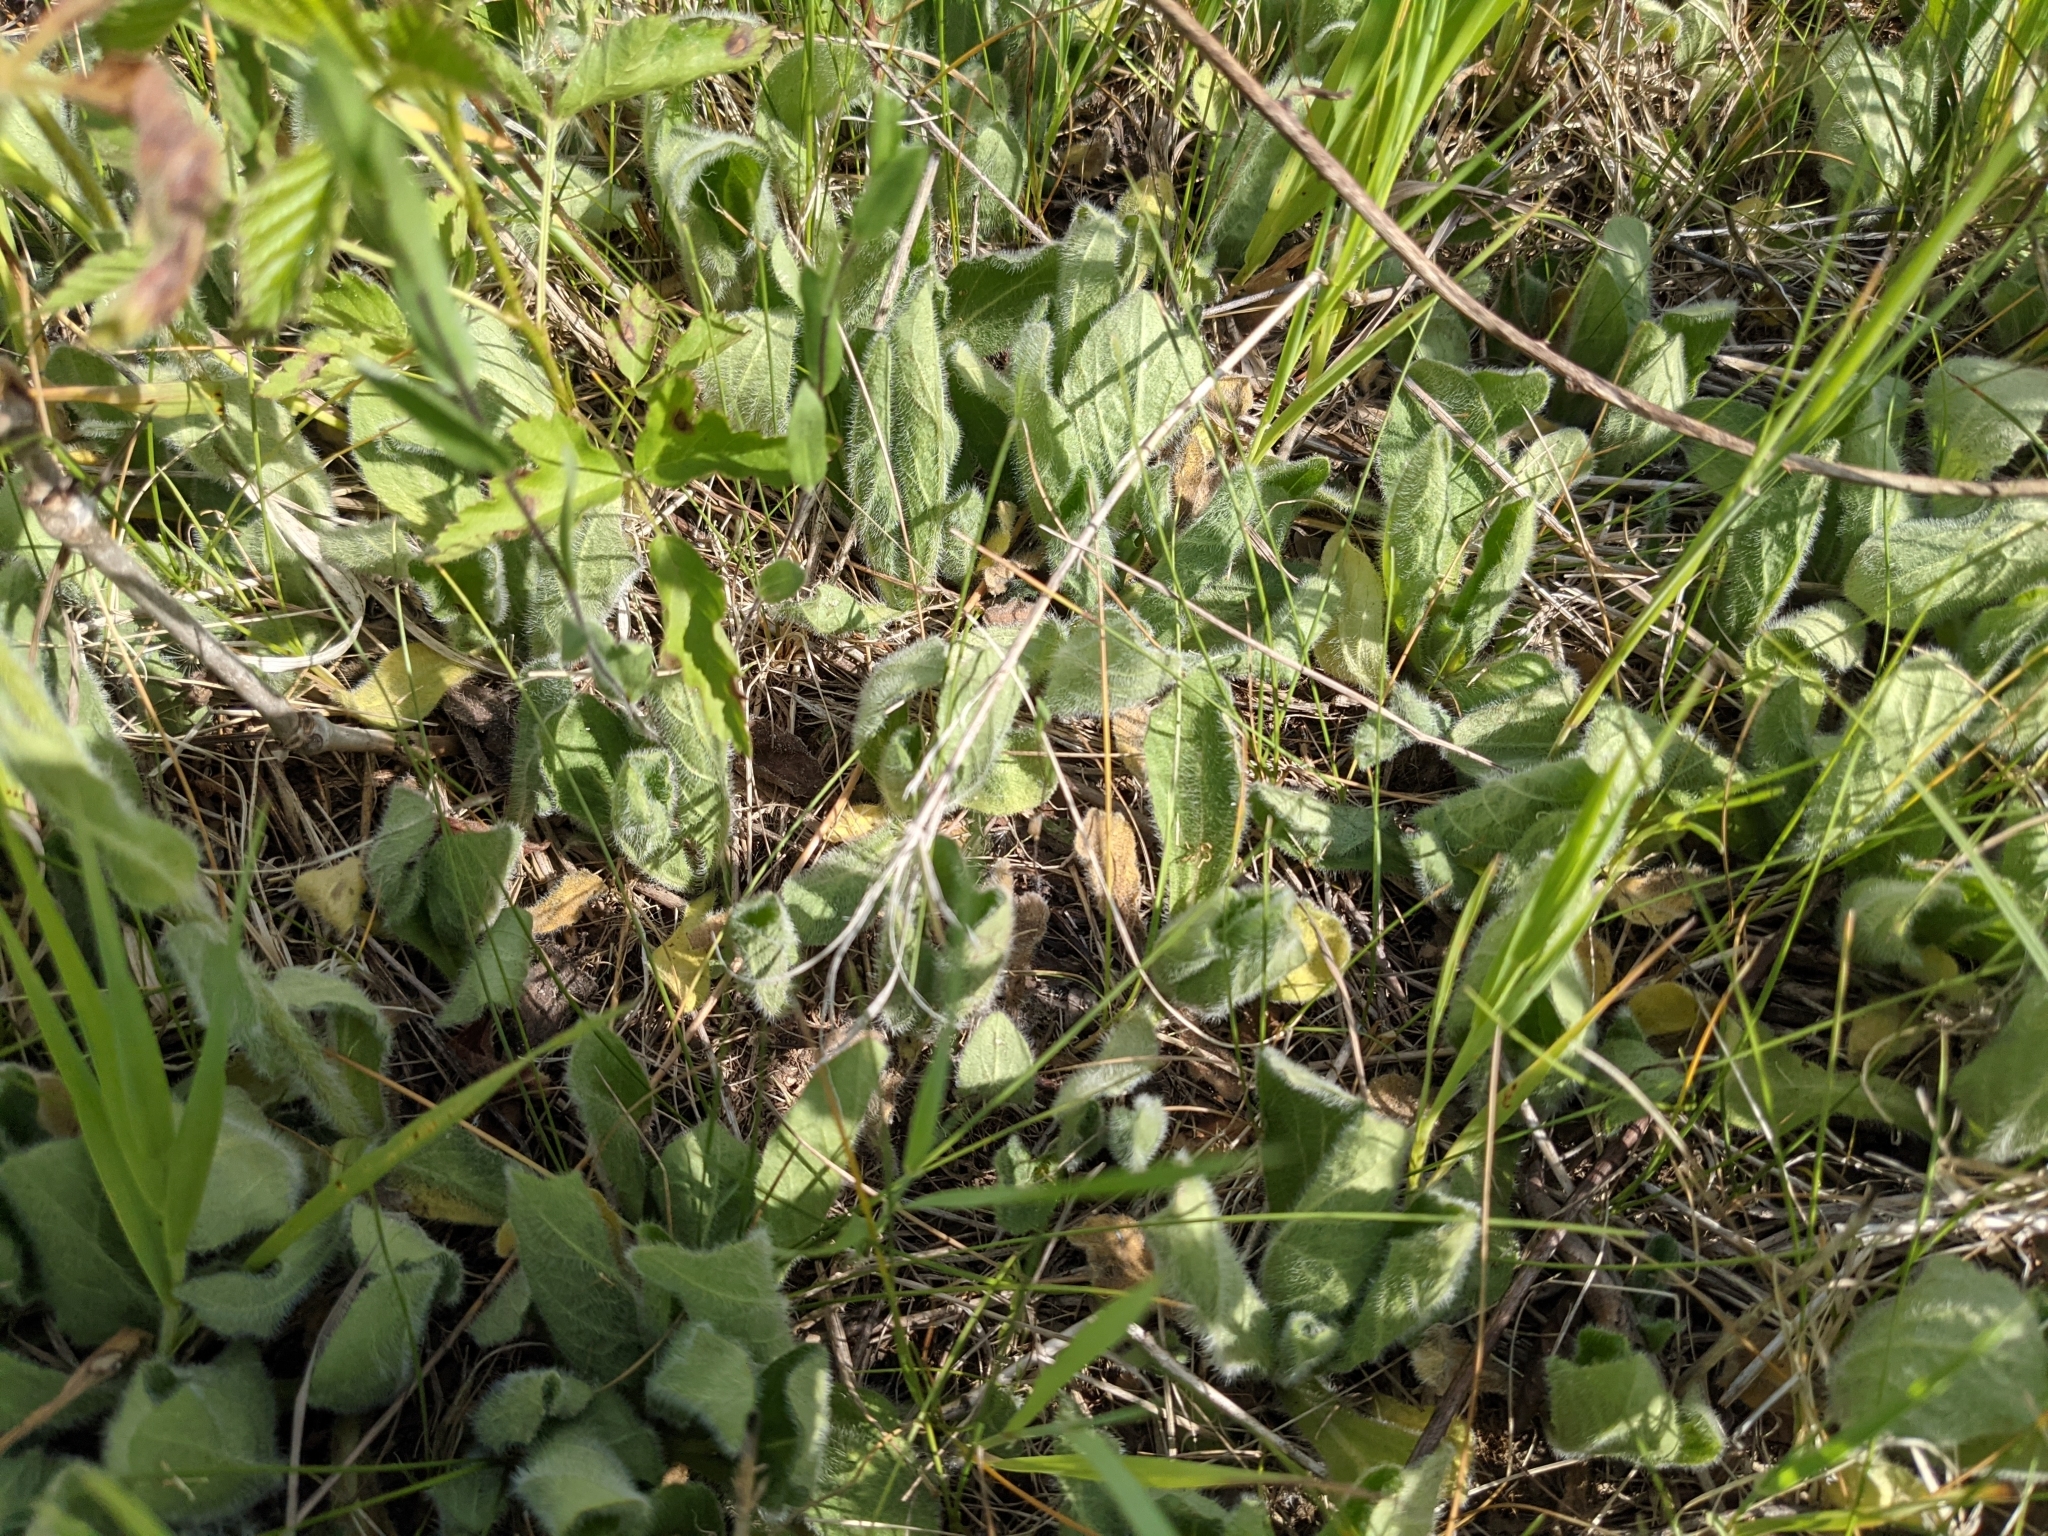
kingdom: Plantae
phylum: Tracheophyta
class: Magnoliopsida
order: Asterales
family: Asteraceae
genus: Erigeron
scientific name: Erigeron pulchellus
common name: Hairy fleabane
